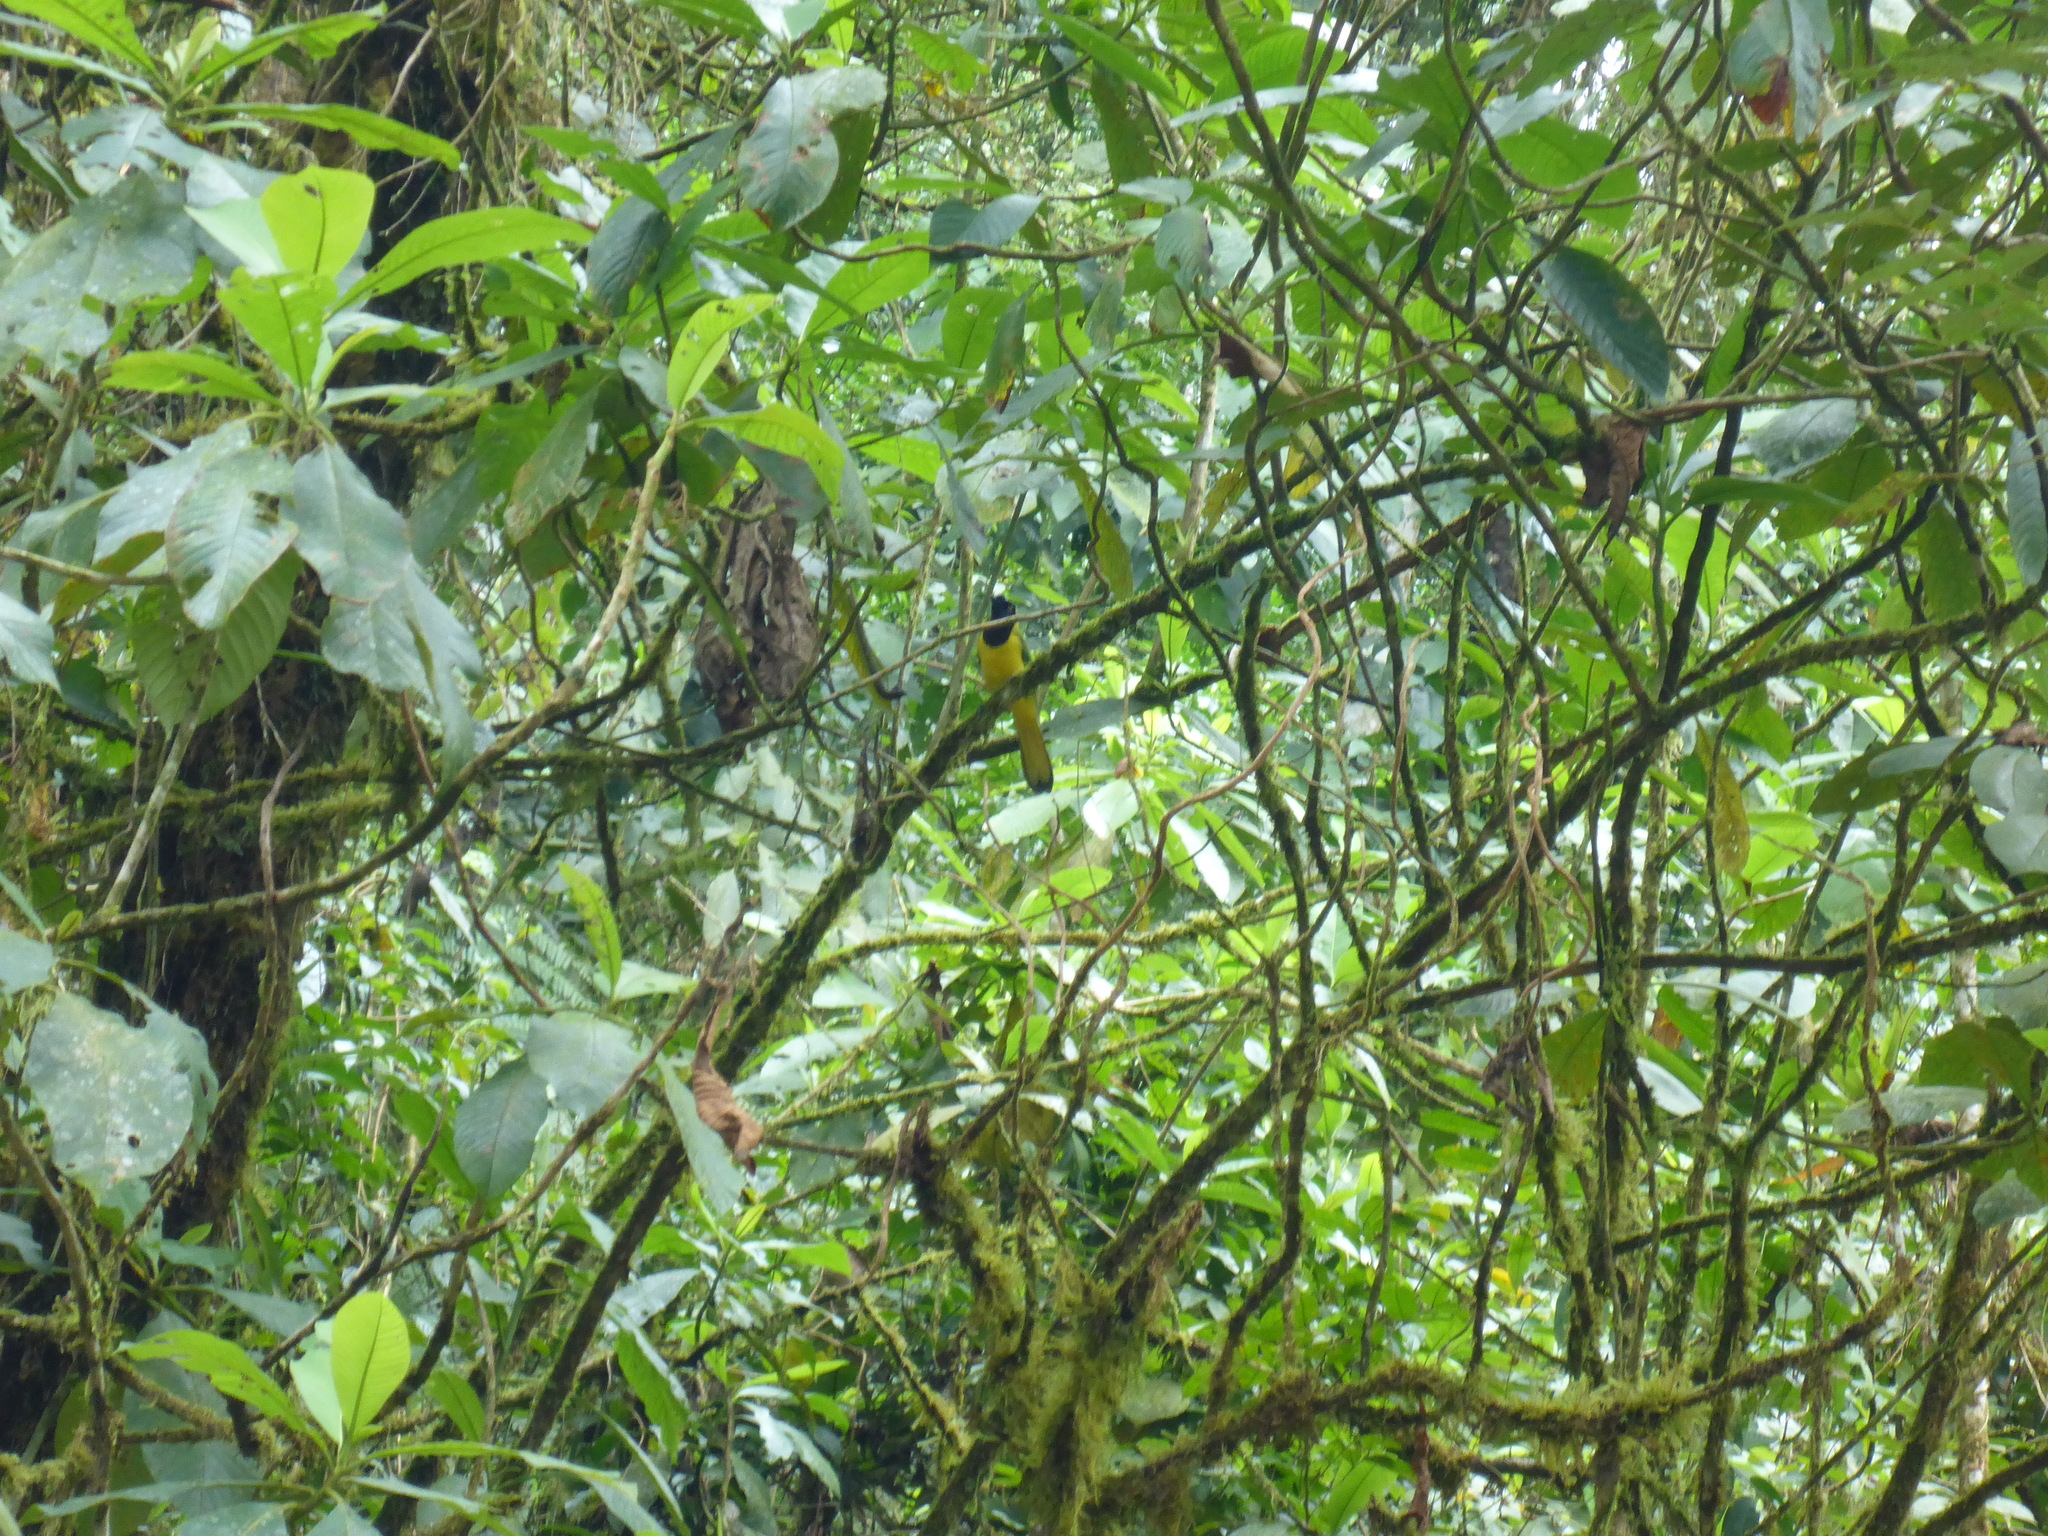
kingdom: Animalia
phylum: Chordata
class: Aves
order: Passeriformes
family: Corvidae
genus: Cyanocorax
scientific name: Cyanocorax yncas
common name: Green jay
